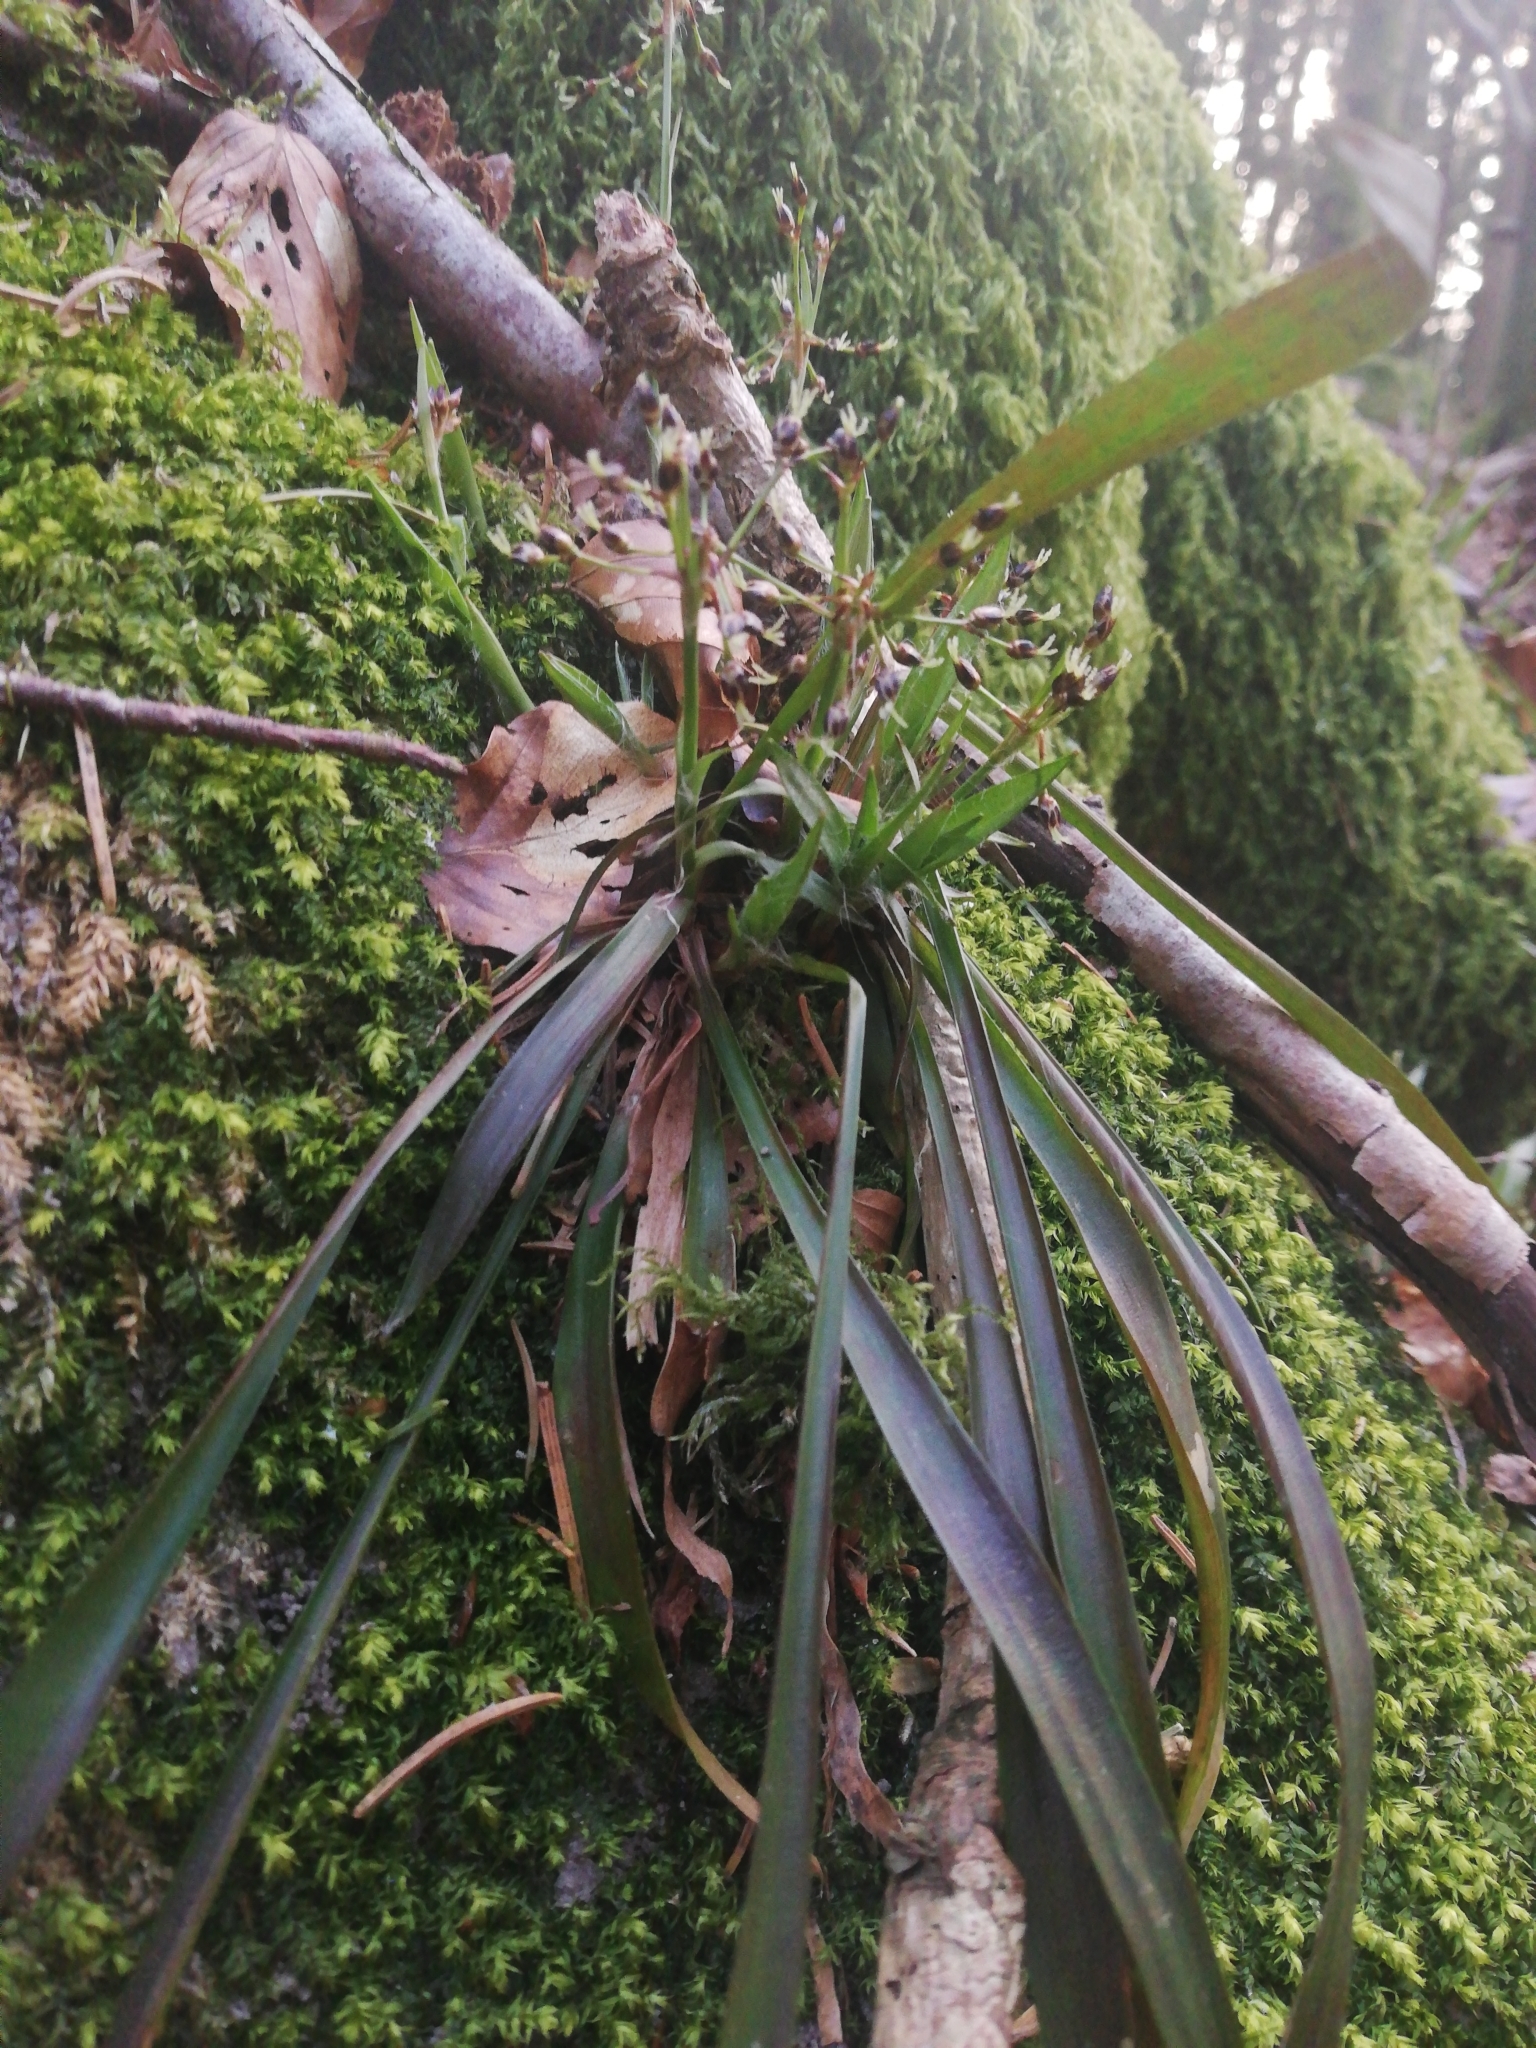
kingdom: Plantae
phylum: Tracheophyta
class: Liliopsida
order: Poales
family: Juncaceae
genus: Luzula
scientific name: Luzula pilosa
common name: Hairy wood-rush
